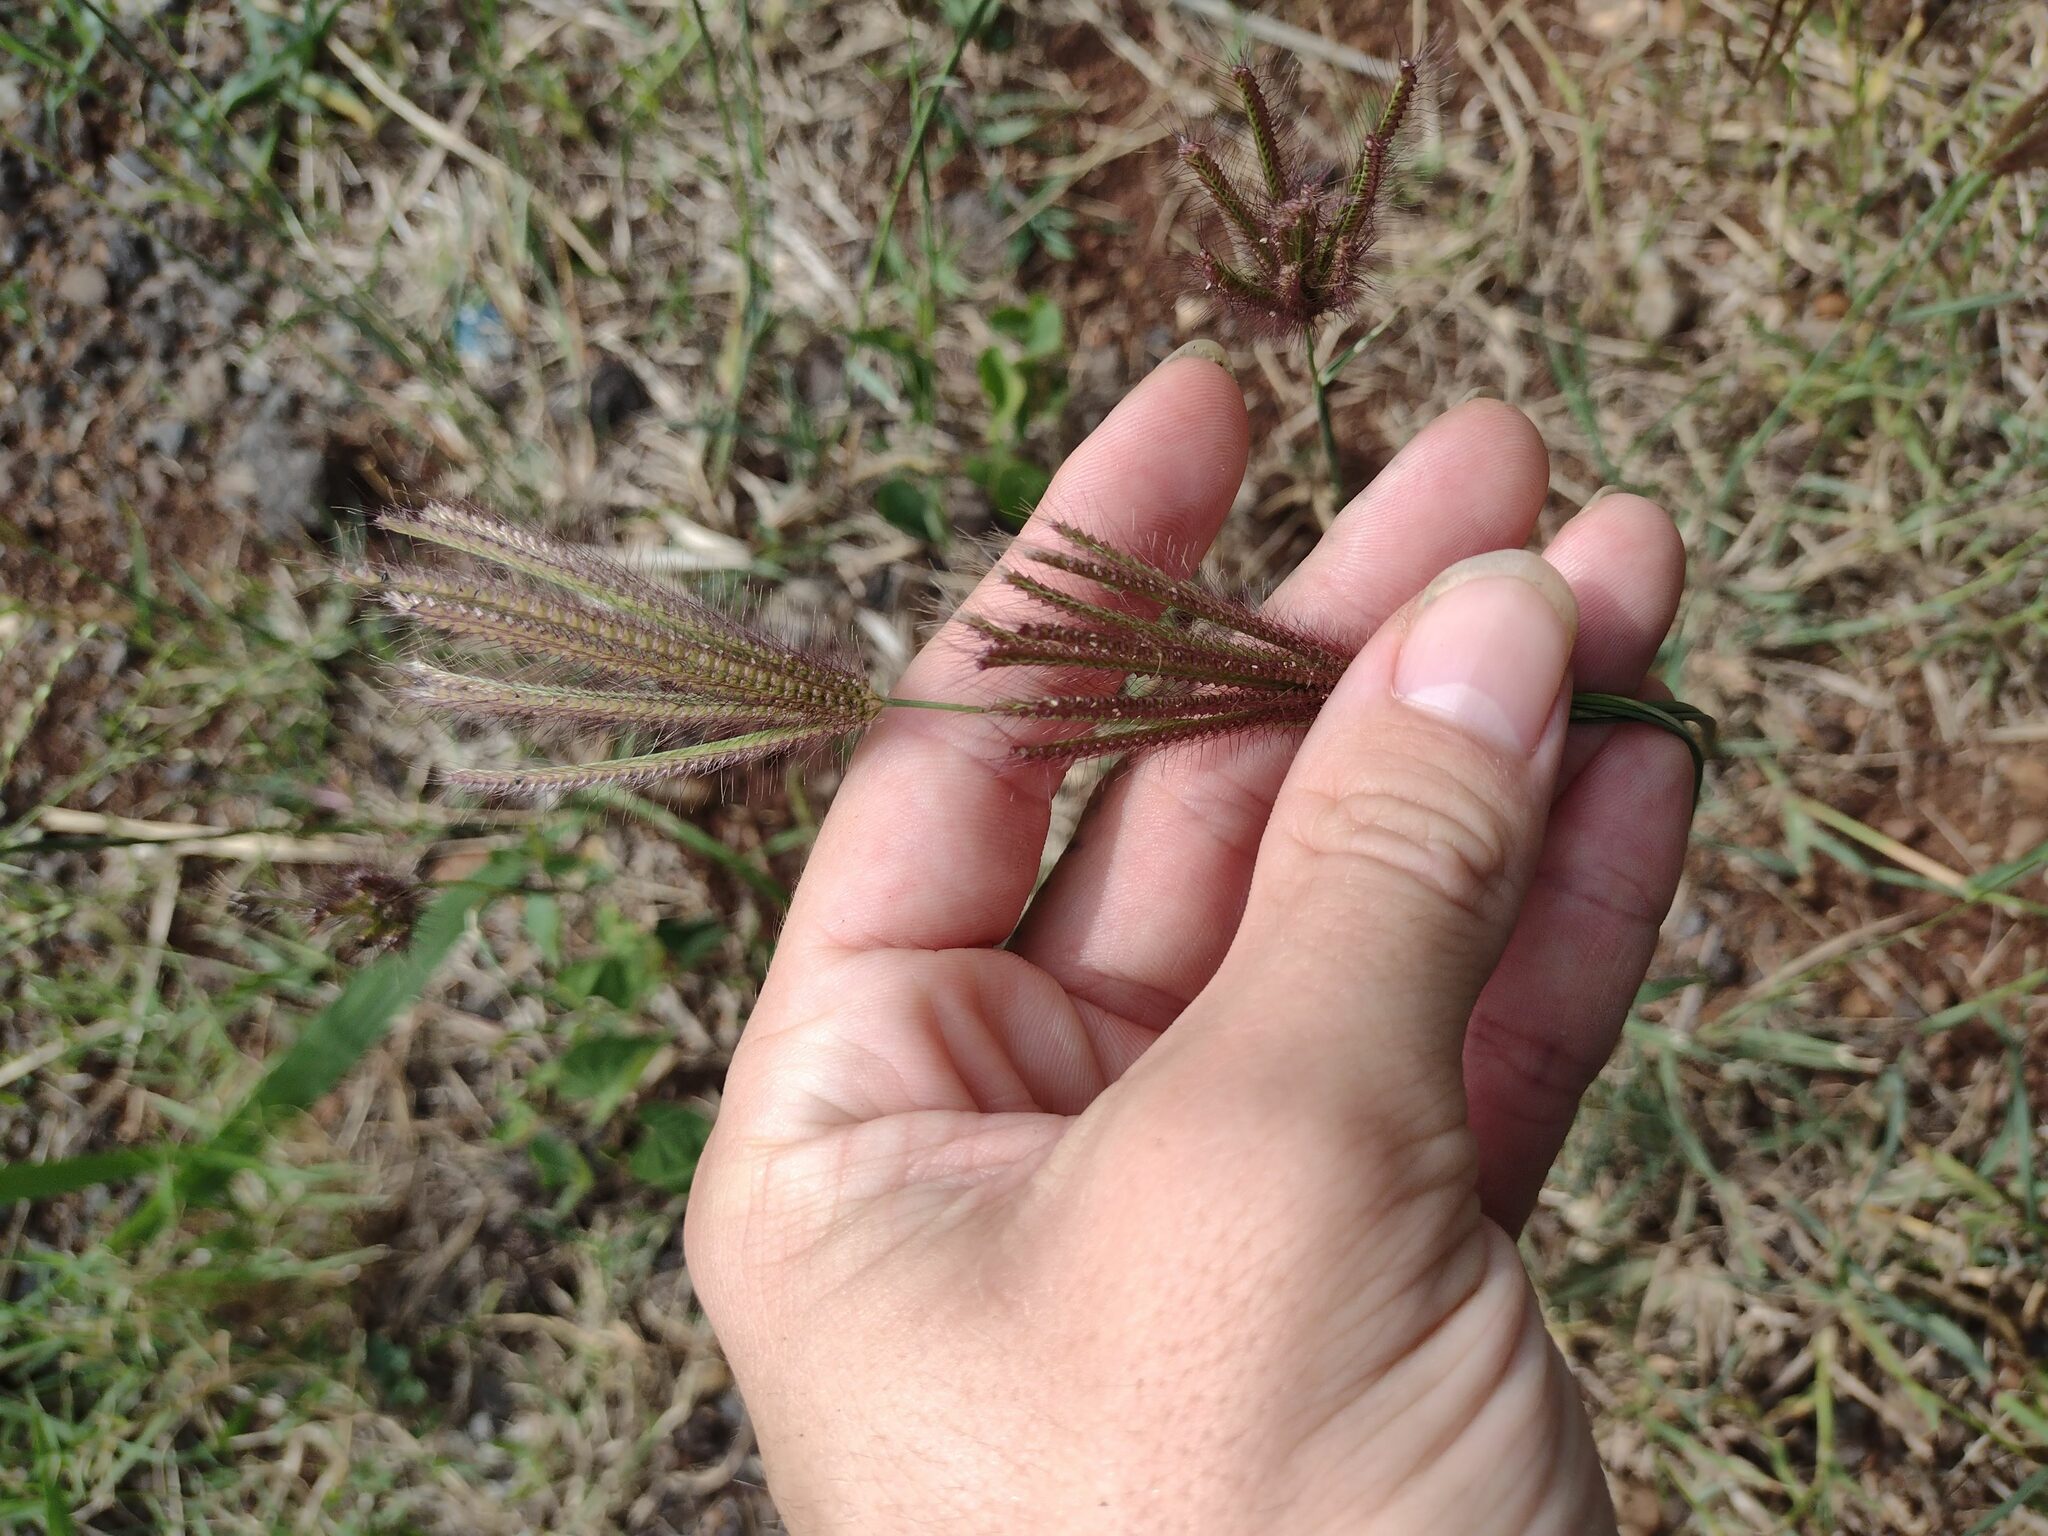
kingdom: Plantae
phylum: Tracheophyta
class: Liliopsida
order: Poales
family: Poaceae
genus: Chloris
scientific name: Chloris barbata
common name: Swollen fingergrass
